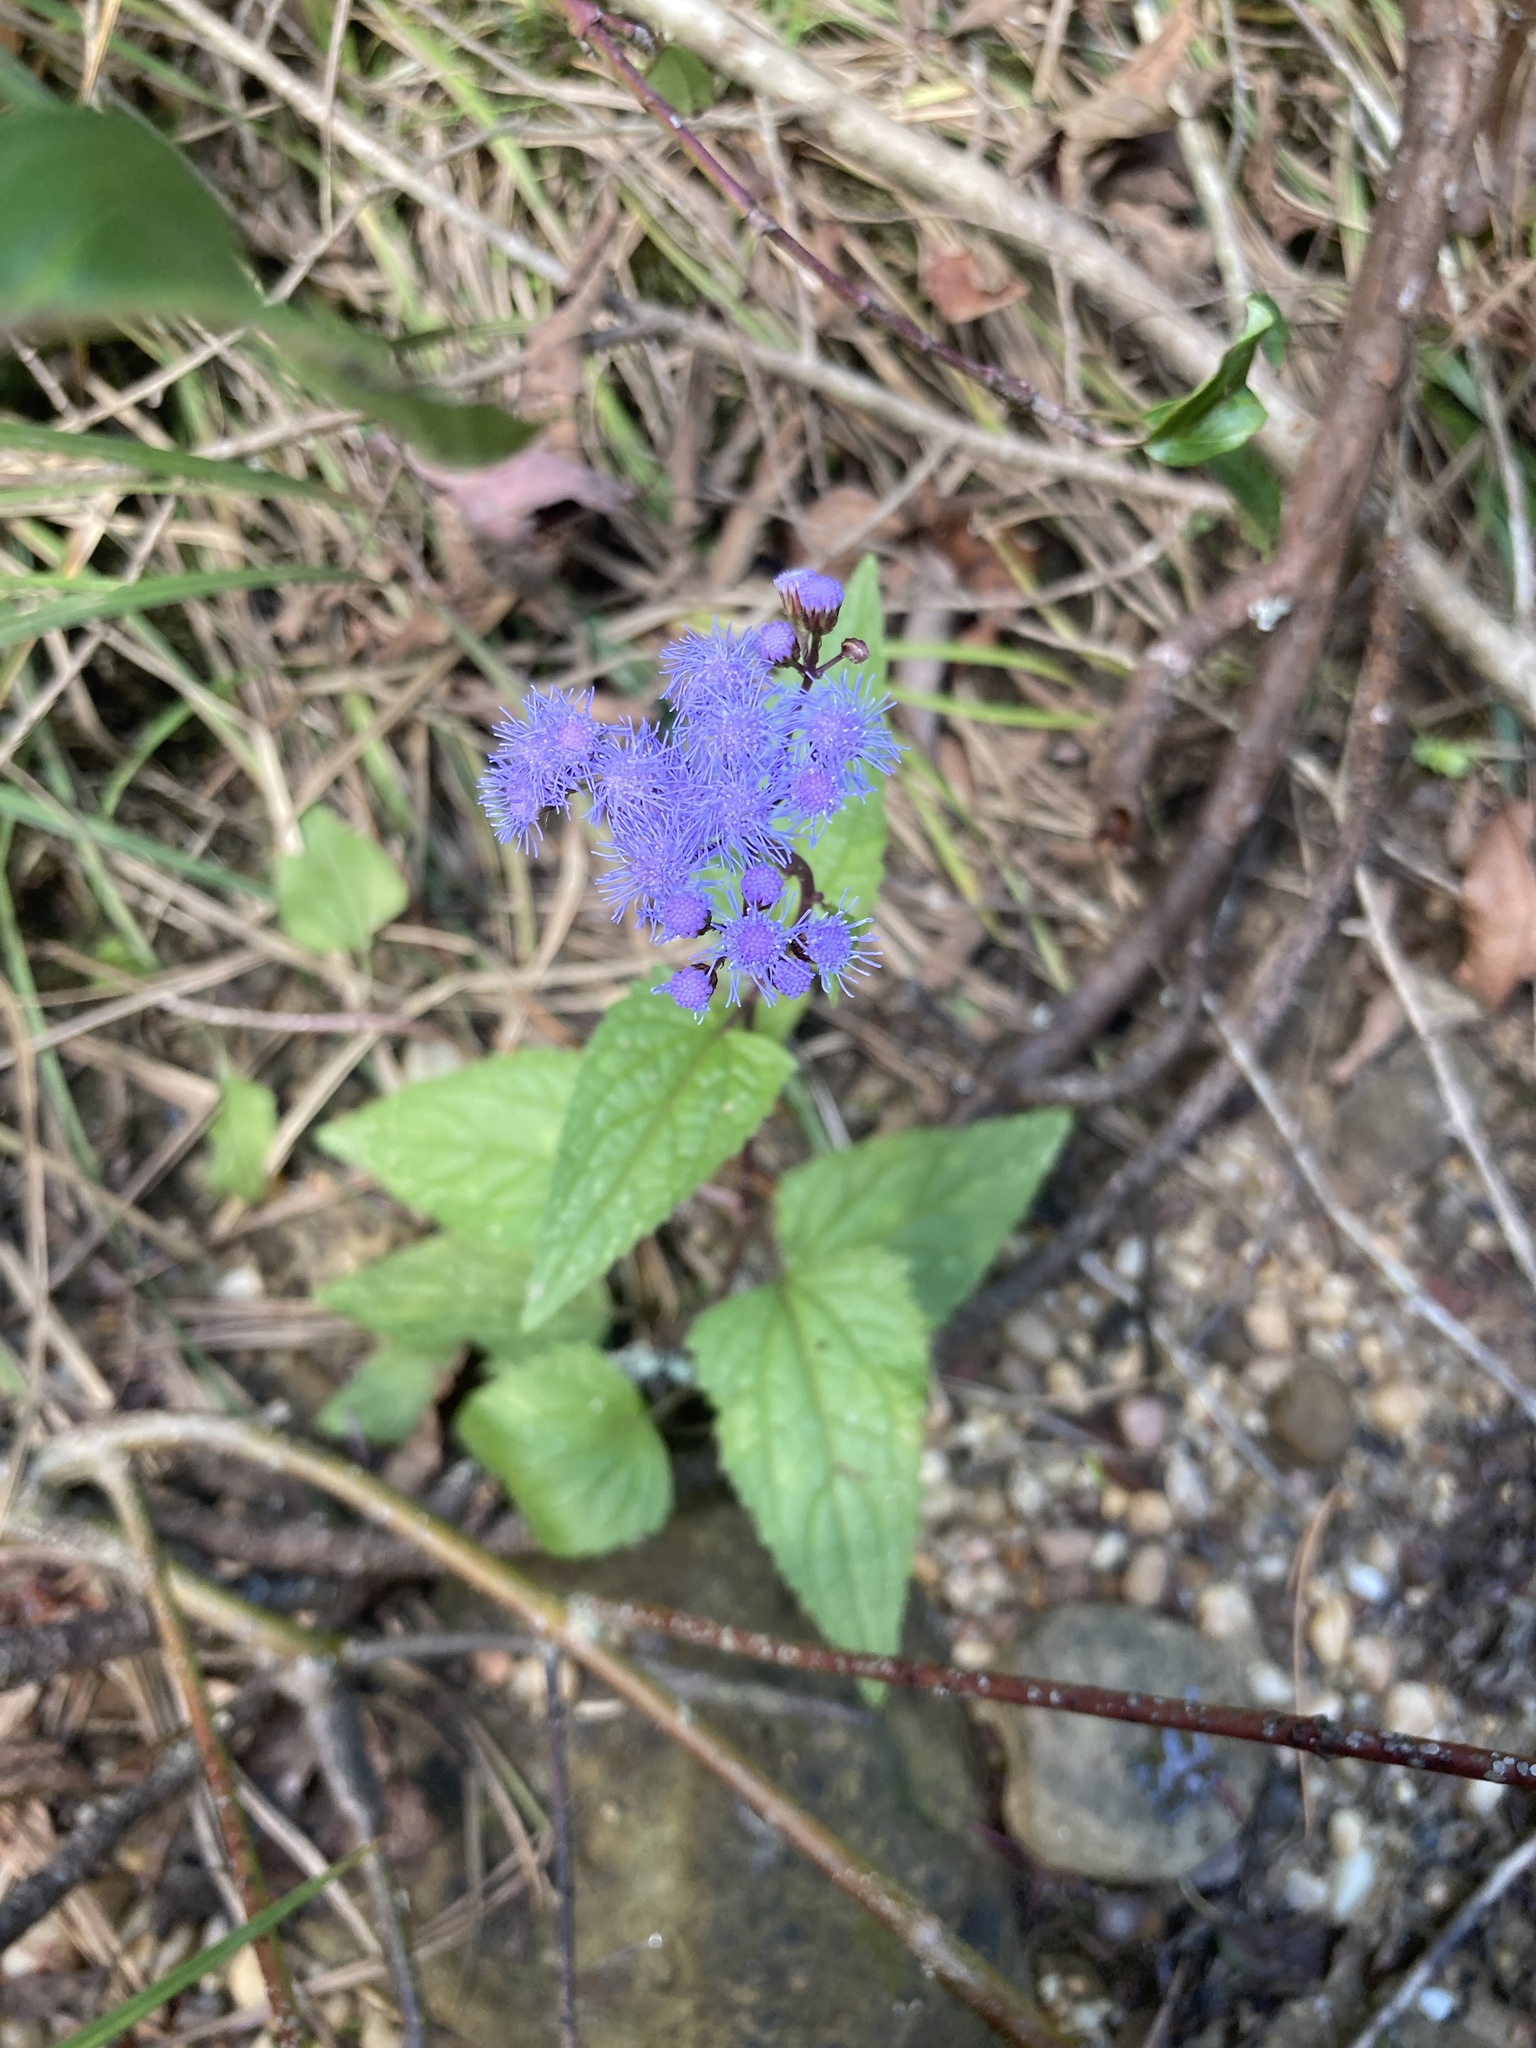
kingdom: Plantae
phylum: Tracheophyta
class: Magnoliopsida
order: Asterales
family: Asteraceae
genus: Conoclinium
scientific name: Conoclinium coelestinum
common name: Blue mistflower
